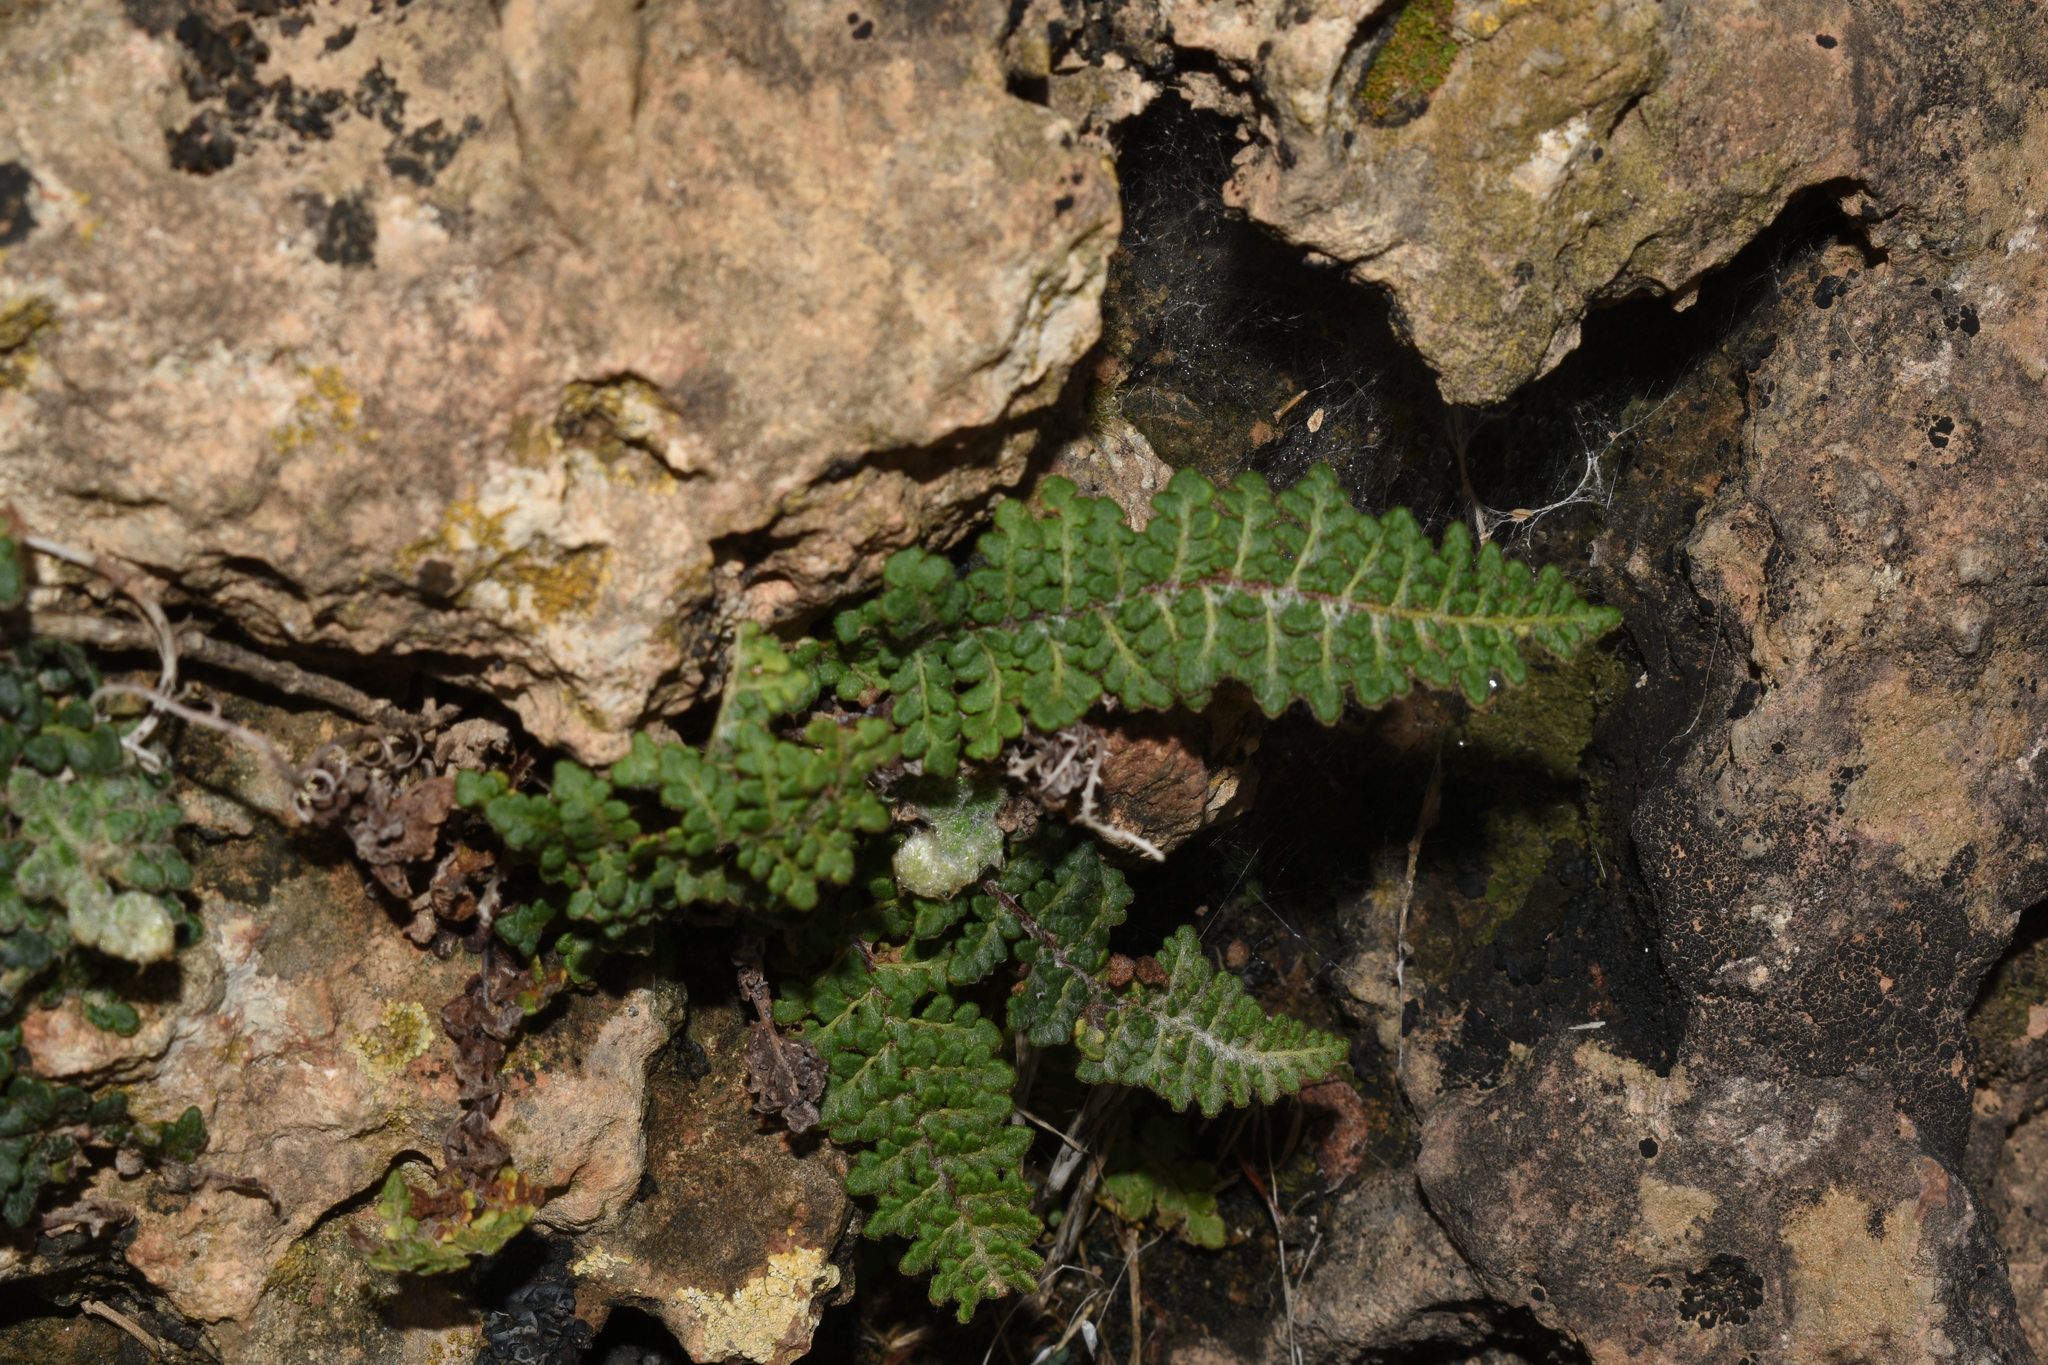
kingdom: Plantae
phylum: Tracheophyta
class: Polypodiopsida
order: Polypodiales
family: Pteridaceae
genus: Cosentinia
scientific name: Cosentinia vellea
